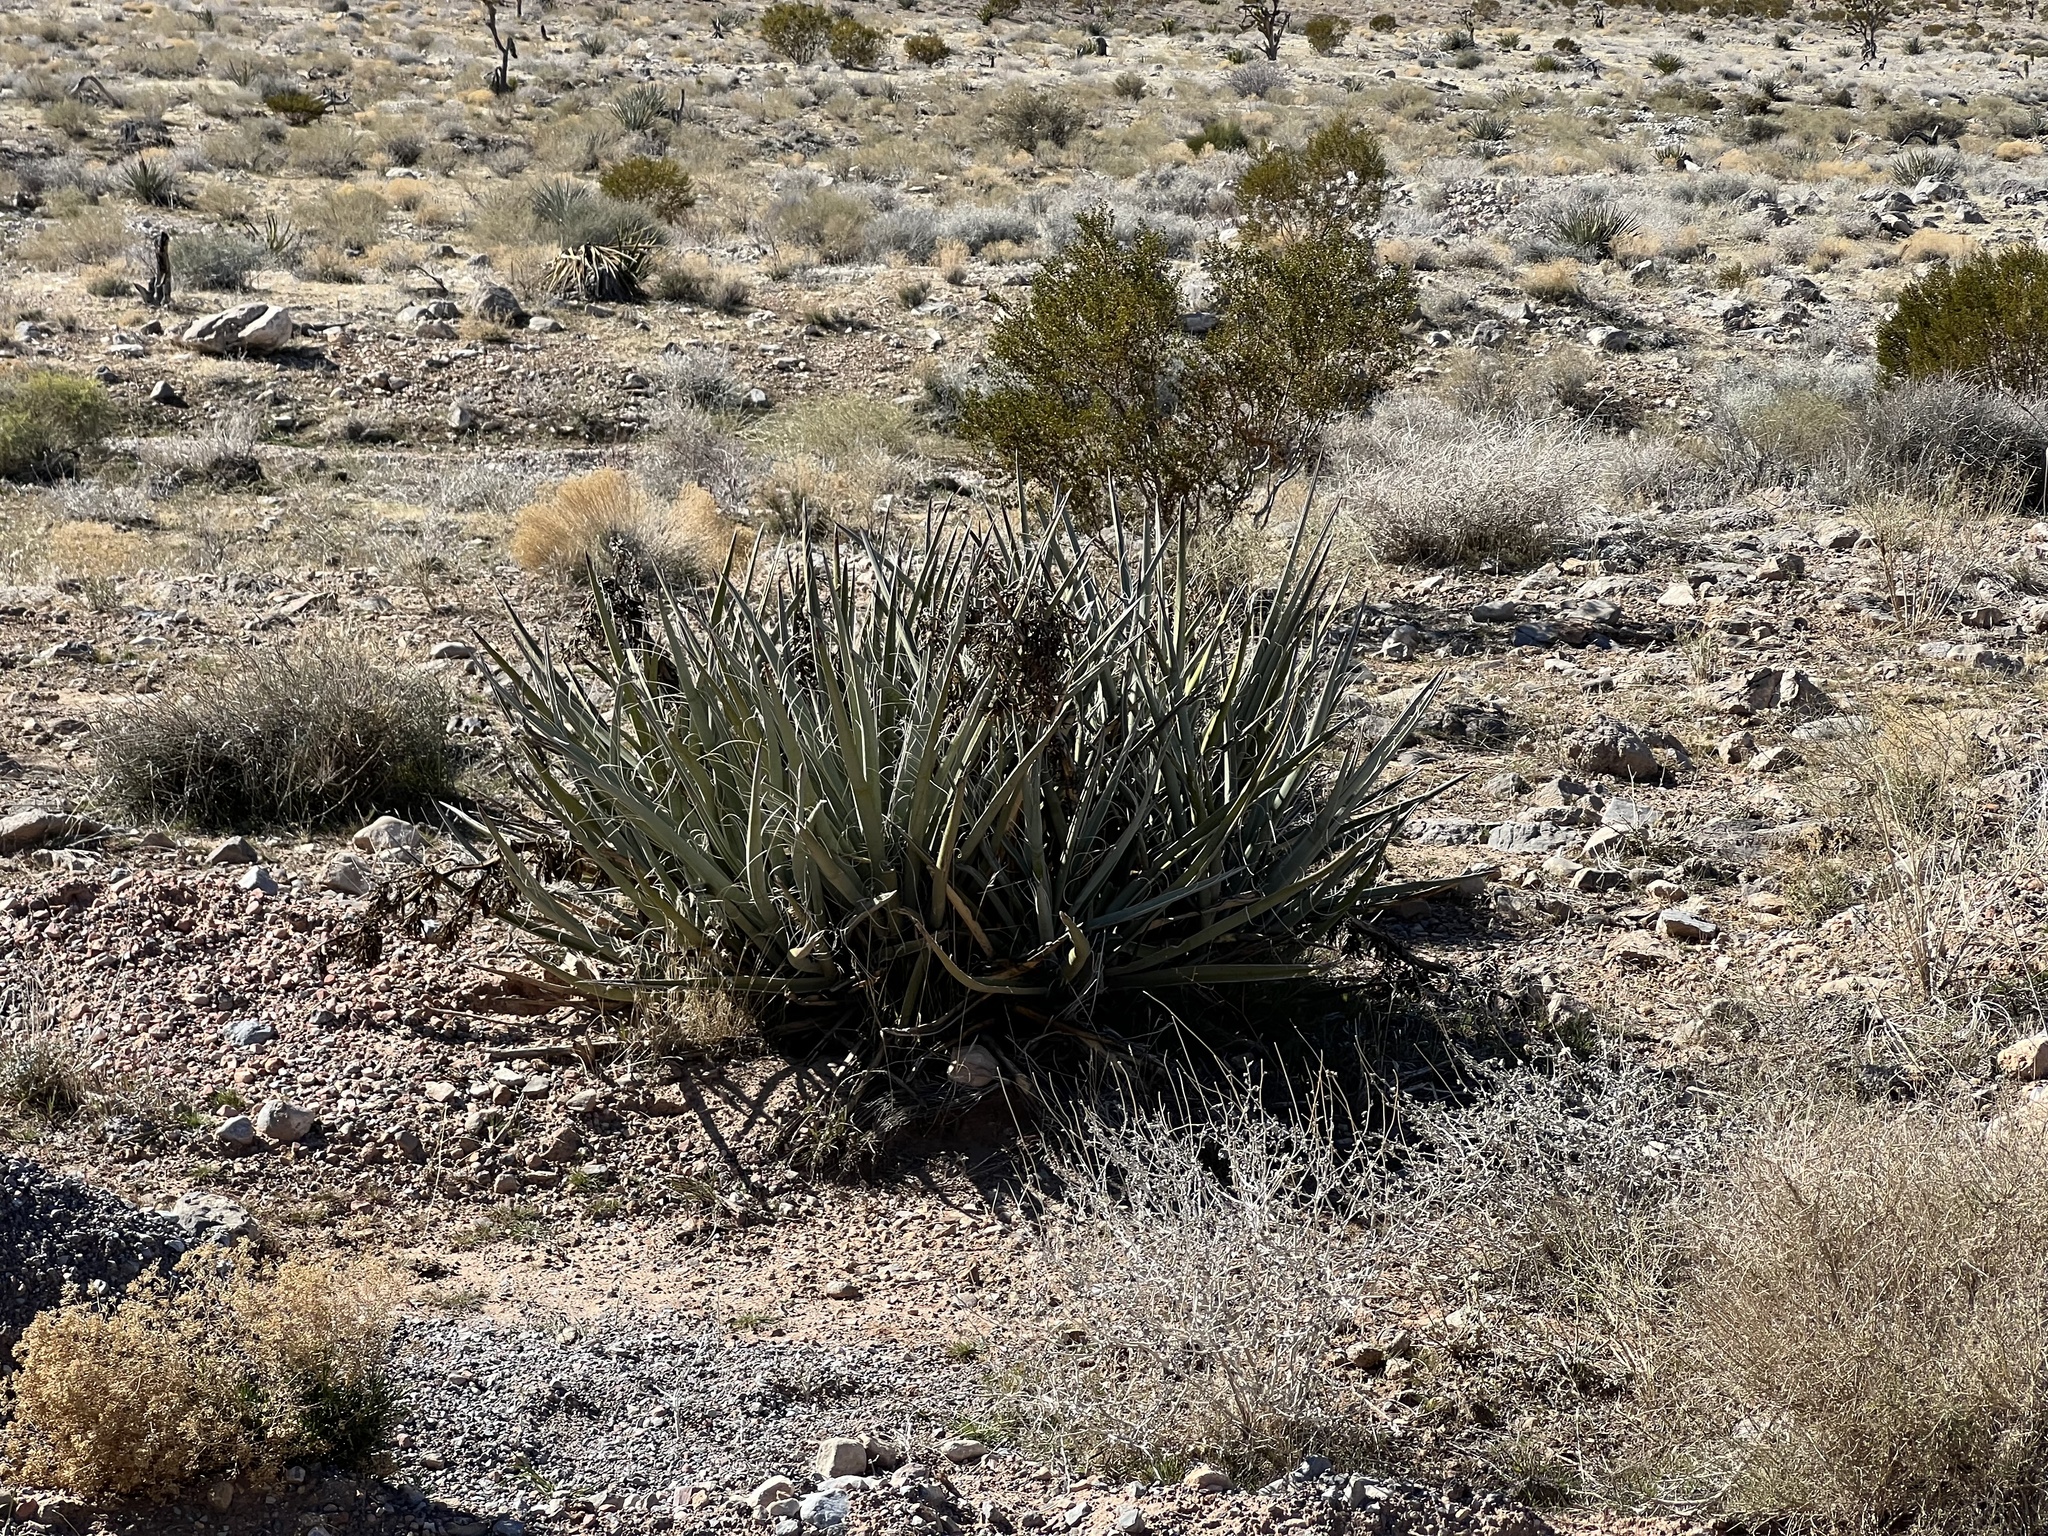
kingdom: Plantae
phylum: Tracheophyta
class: Liliopsida
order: Asparagales
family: Asparagaceae
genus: Yucca
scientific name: Yucca baccata
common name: Banana yucca
